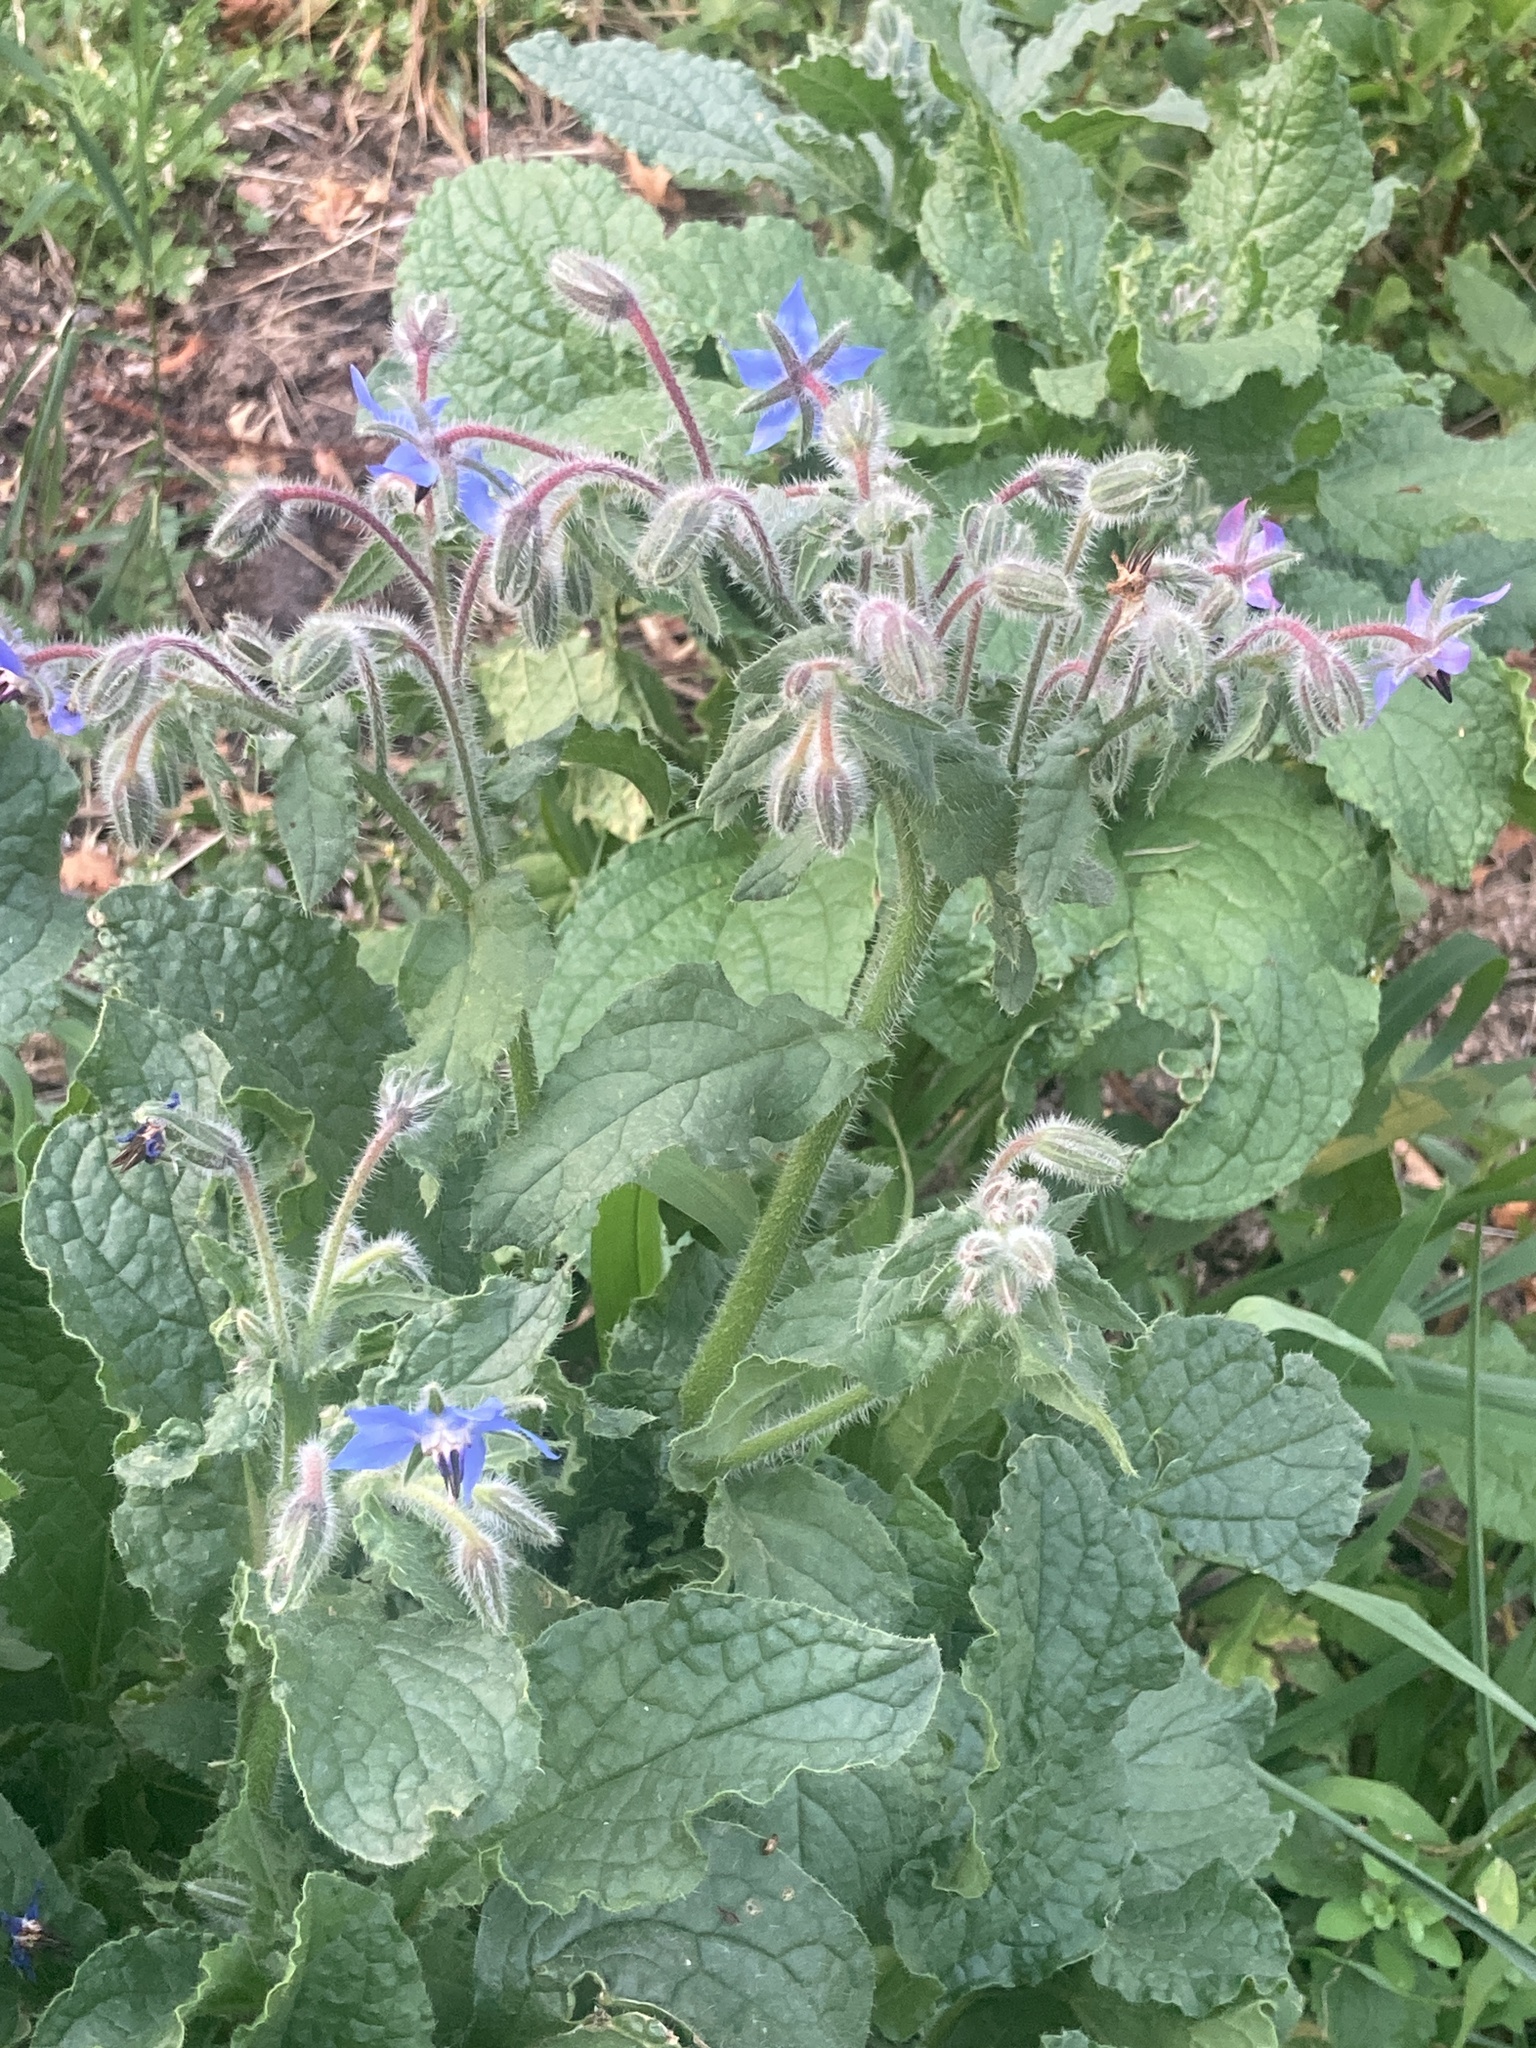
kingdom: Plantae
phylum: Tracheophyta
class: Magnoliopsida
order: Boraginales
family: Boraginaceae
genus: Borago
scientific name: Borago officinalis
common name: Borage
